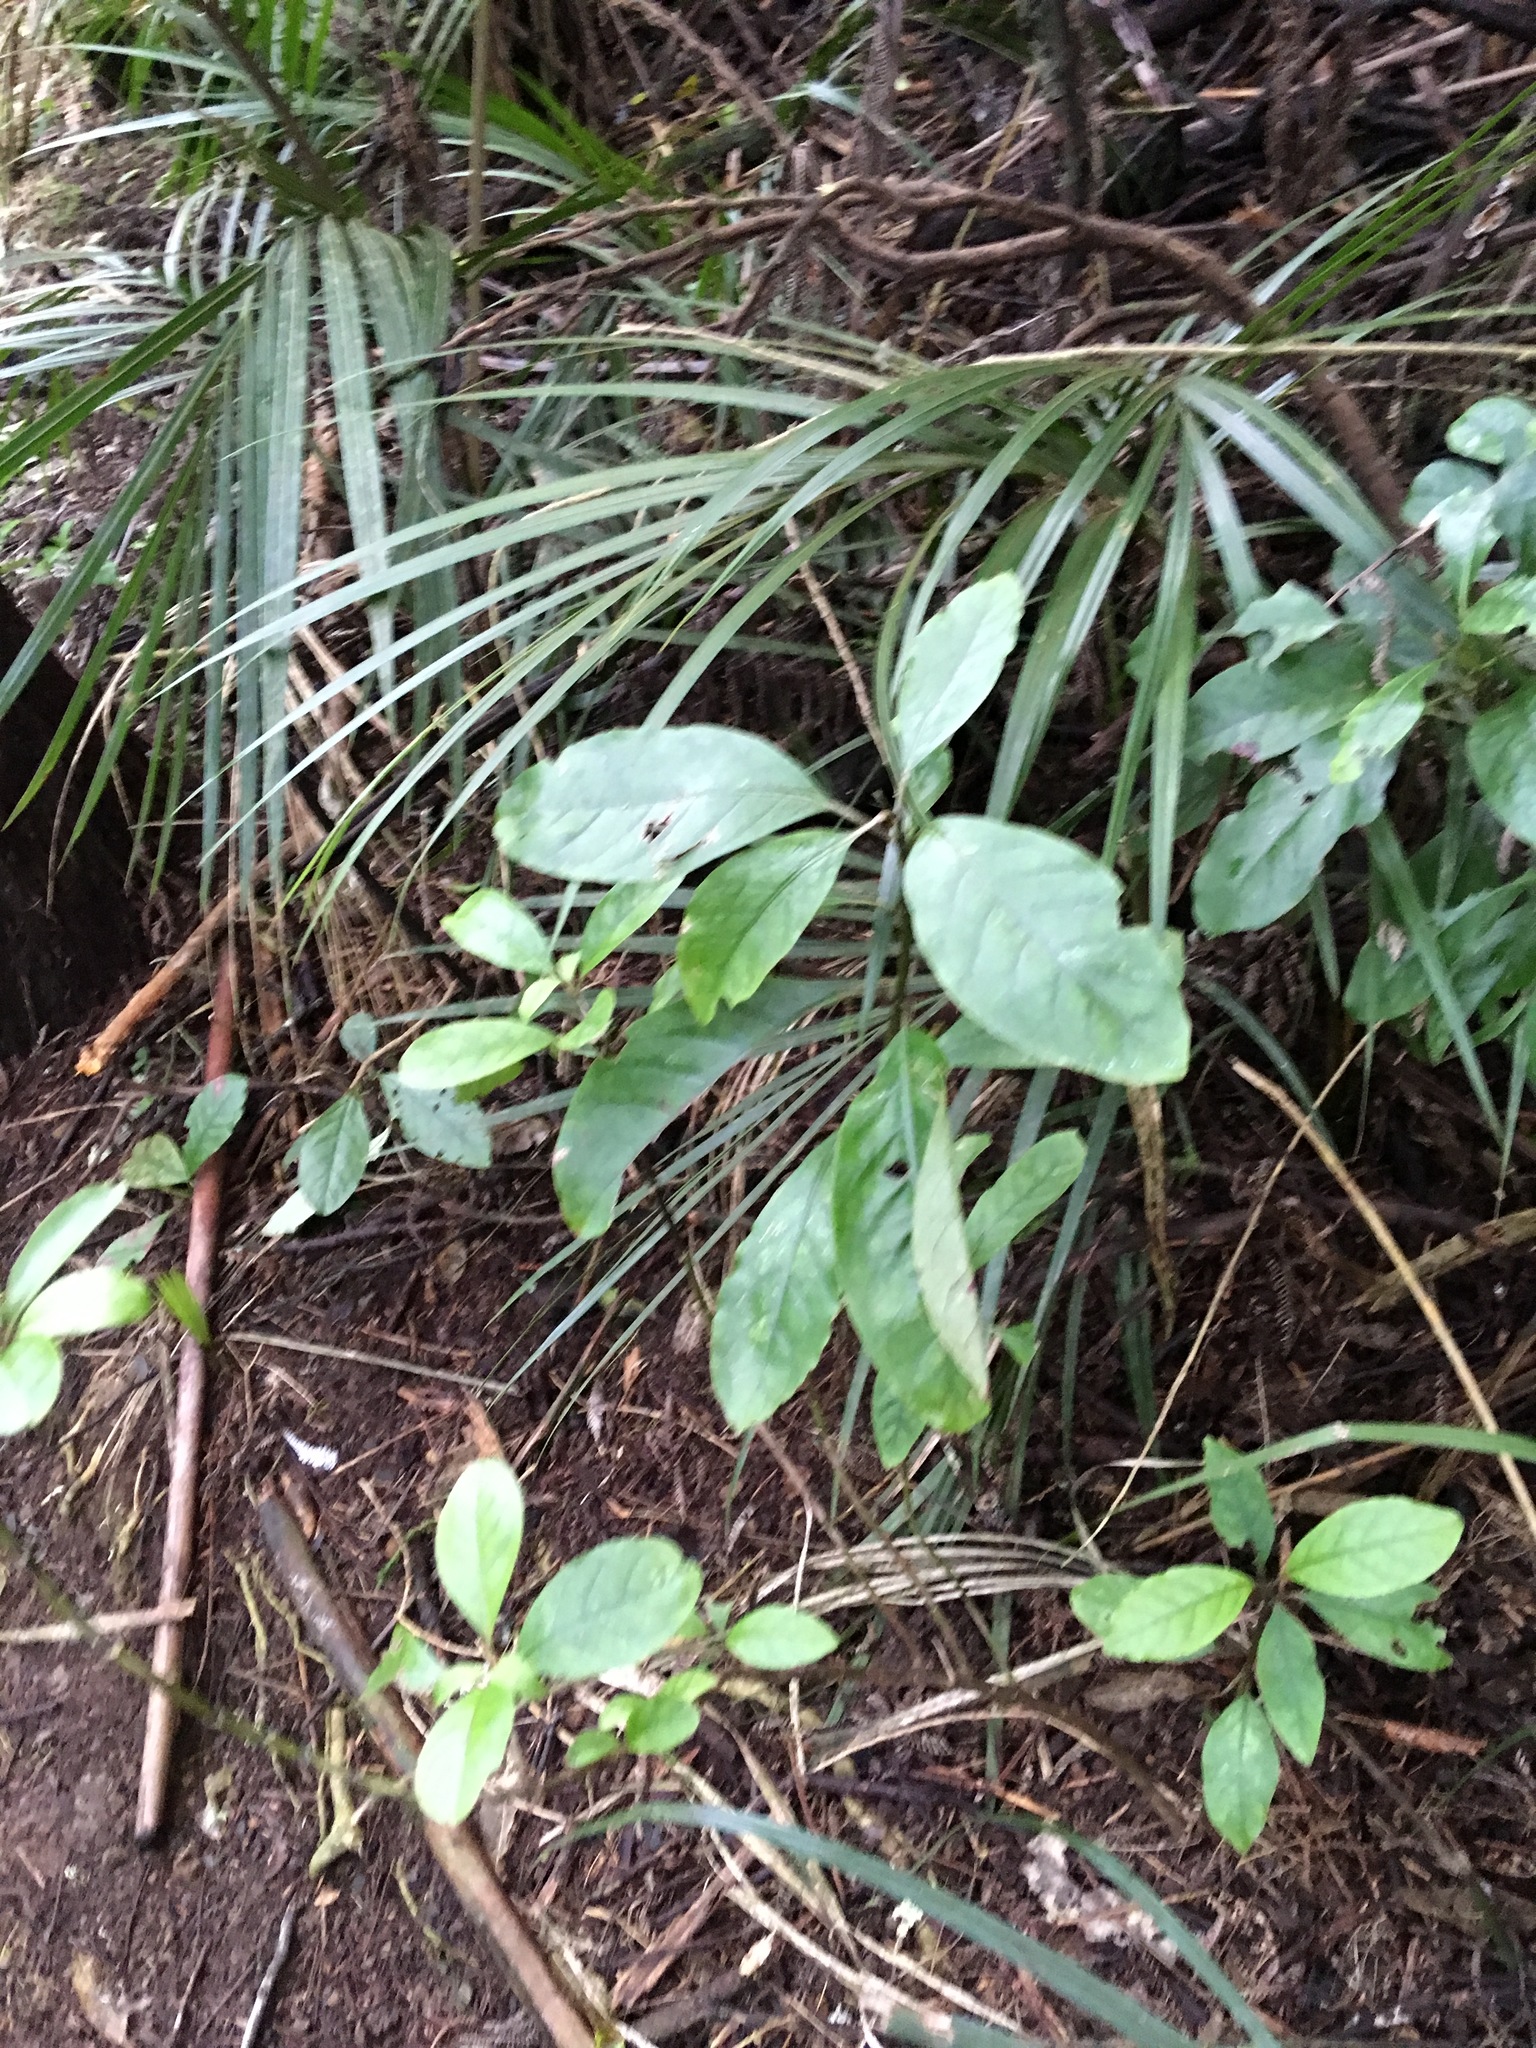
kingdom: Plantae
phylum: Tracheophyta
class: Magnoliopsida
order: Gentianales
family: Rubiaceae
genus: Coprosma
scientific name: Coprosma autumnalis
